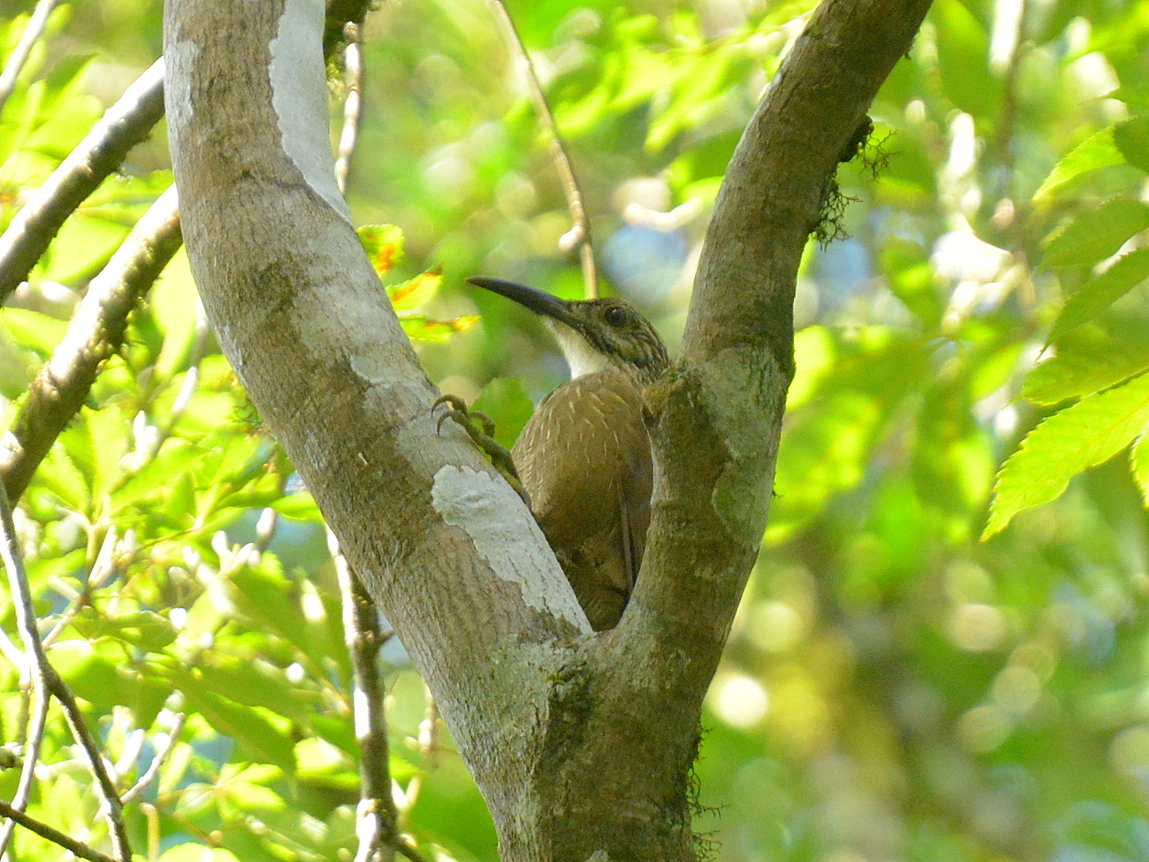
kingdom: Animalia
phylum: Chordata
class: Aves
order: Passeriformes
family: Furnariidae
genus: Xiphocolaptes
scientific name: Xiphocolaptes albicollis
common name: White-throated woodcreeper
